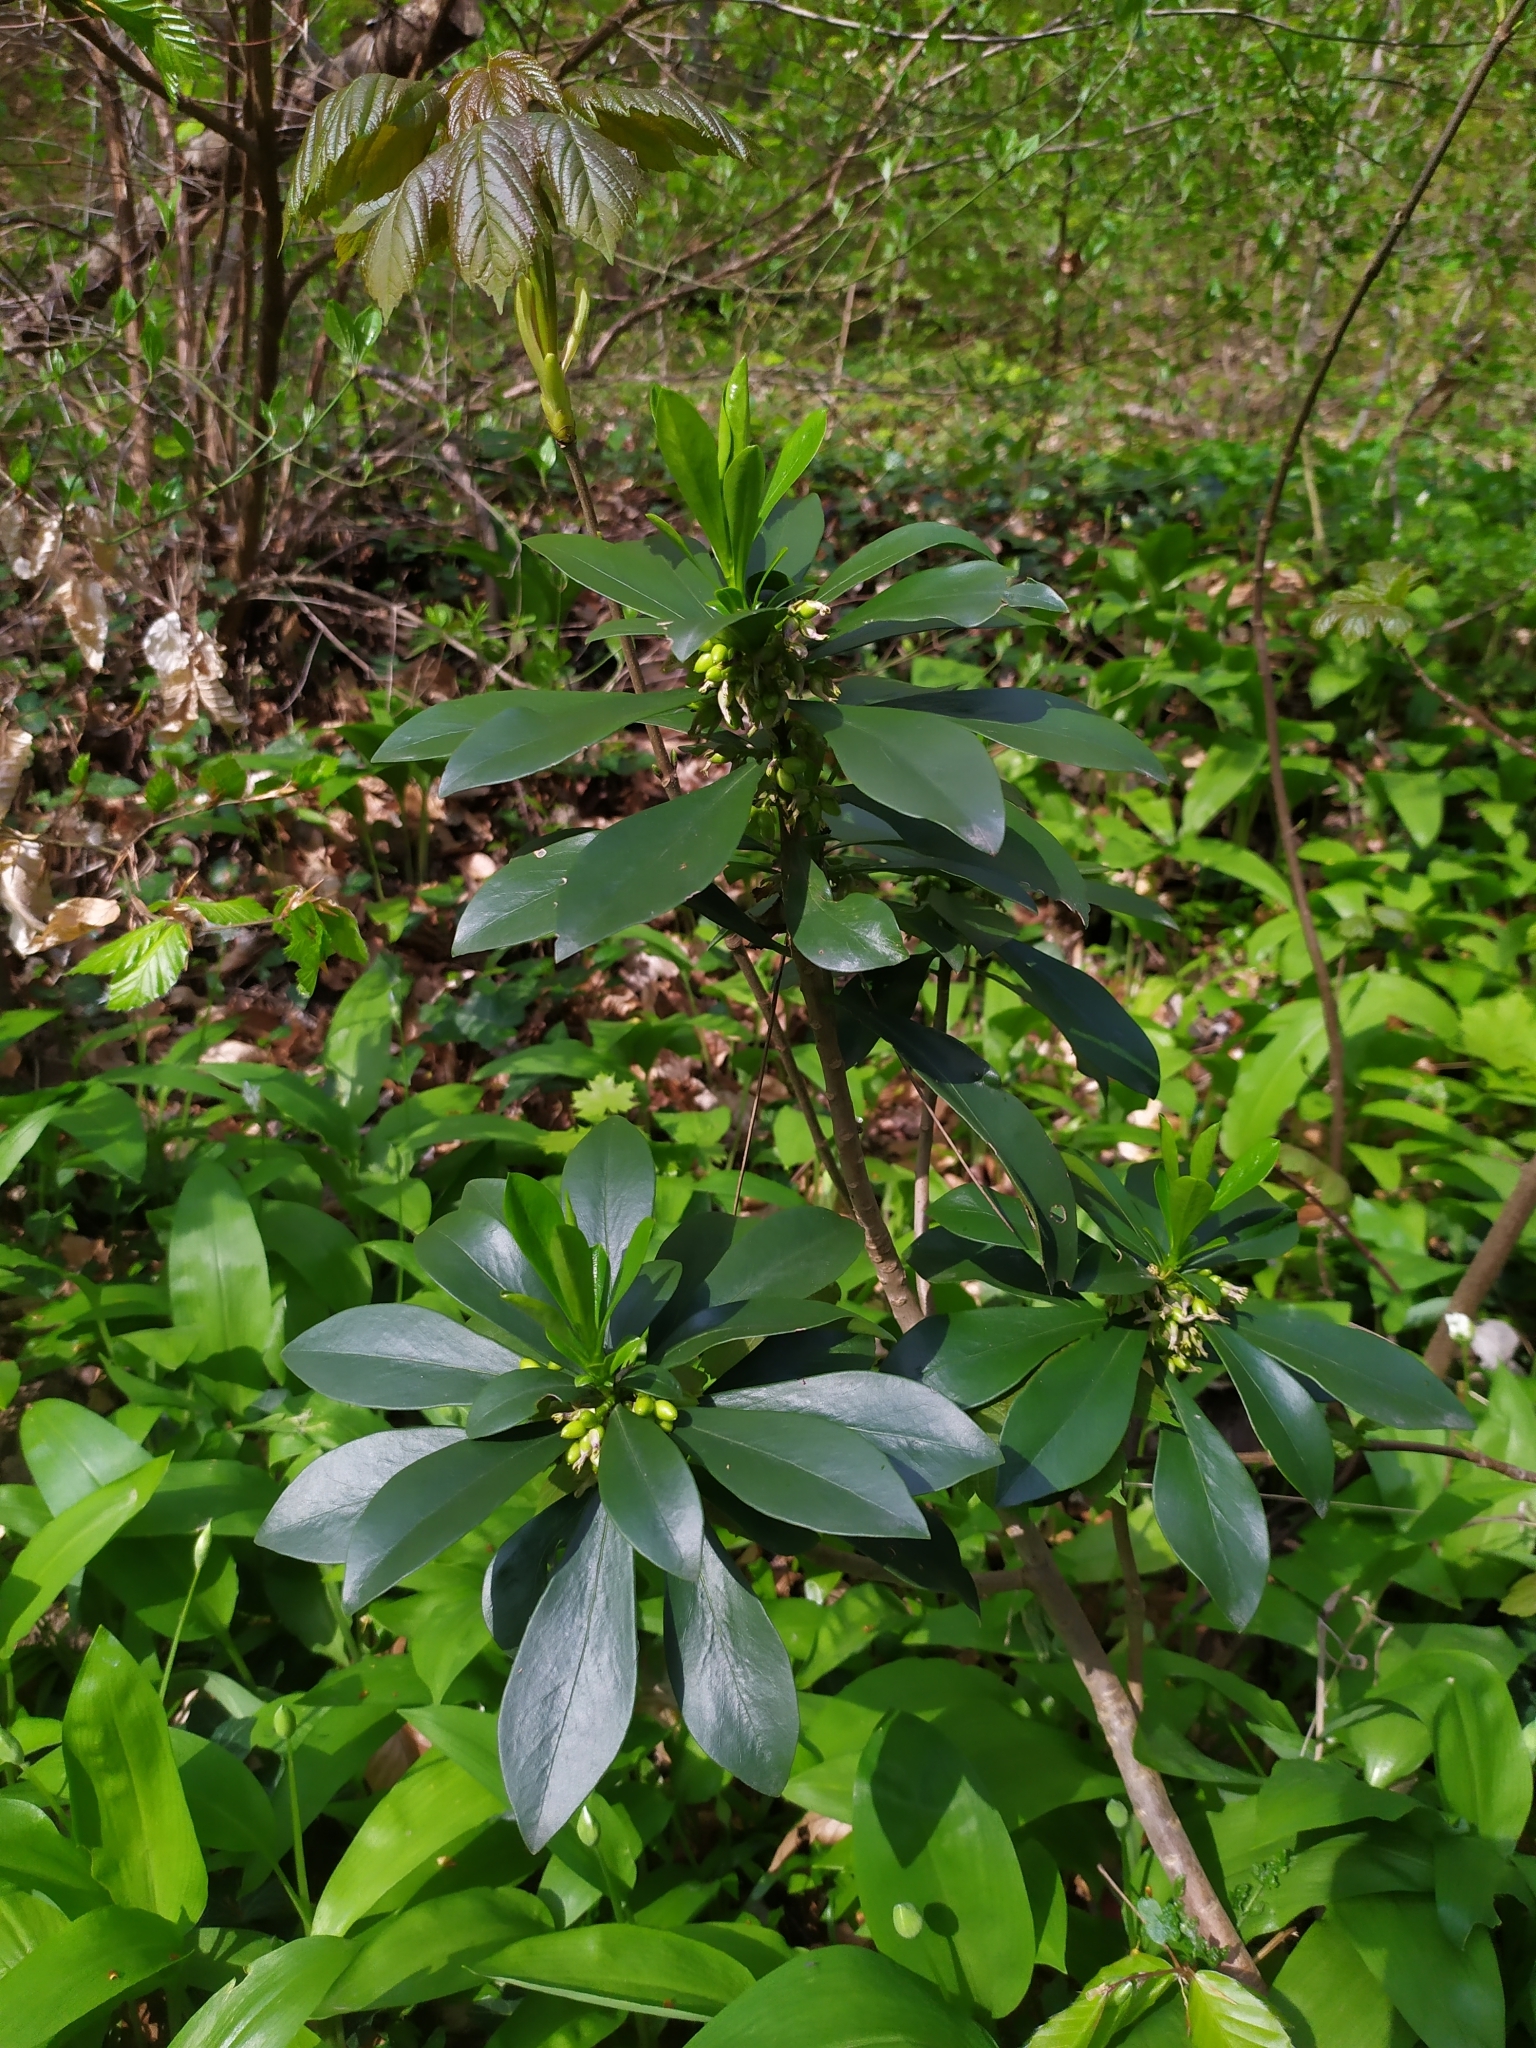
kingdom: Plantae
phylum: Tracheophyta
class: Magnoliopsida
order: Malvales
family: Thymelaeaceae
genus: Daphne
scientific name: Daphne laureola
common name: Spurge-laurel
